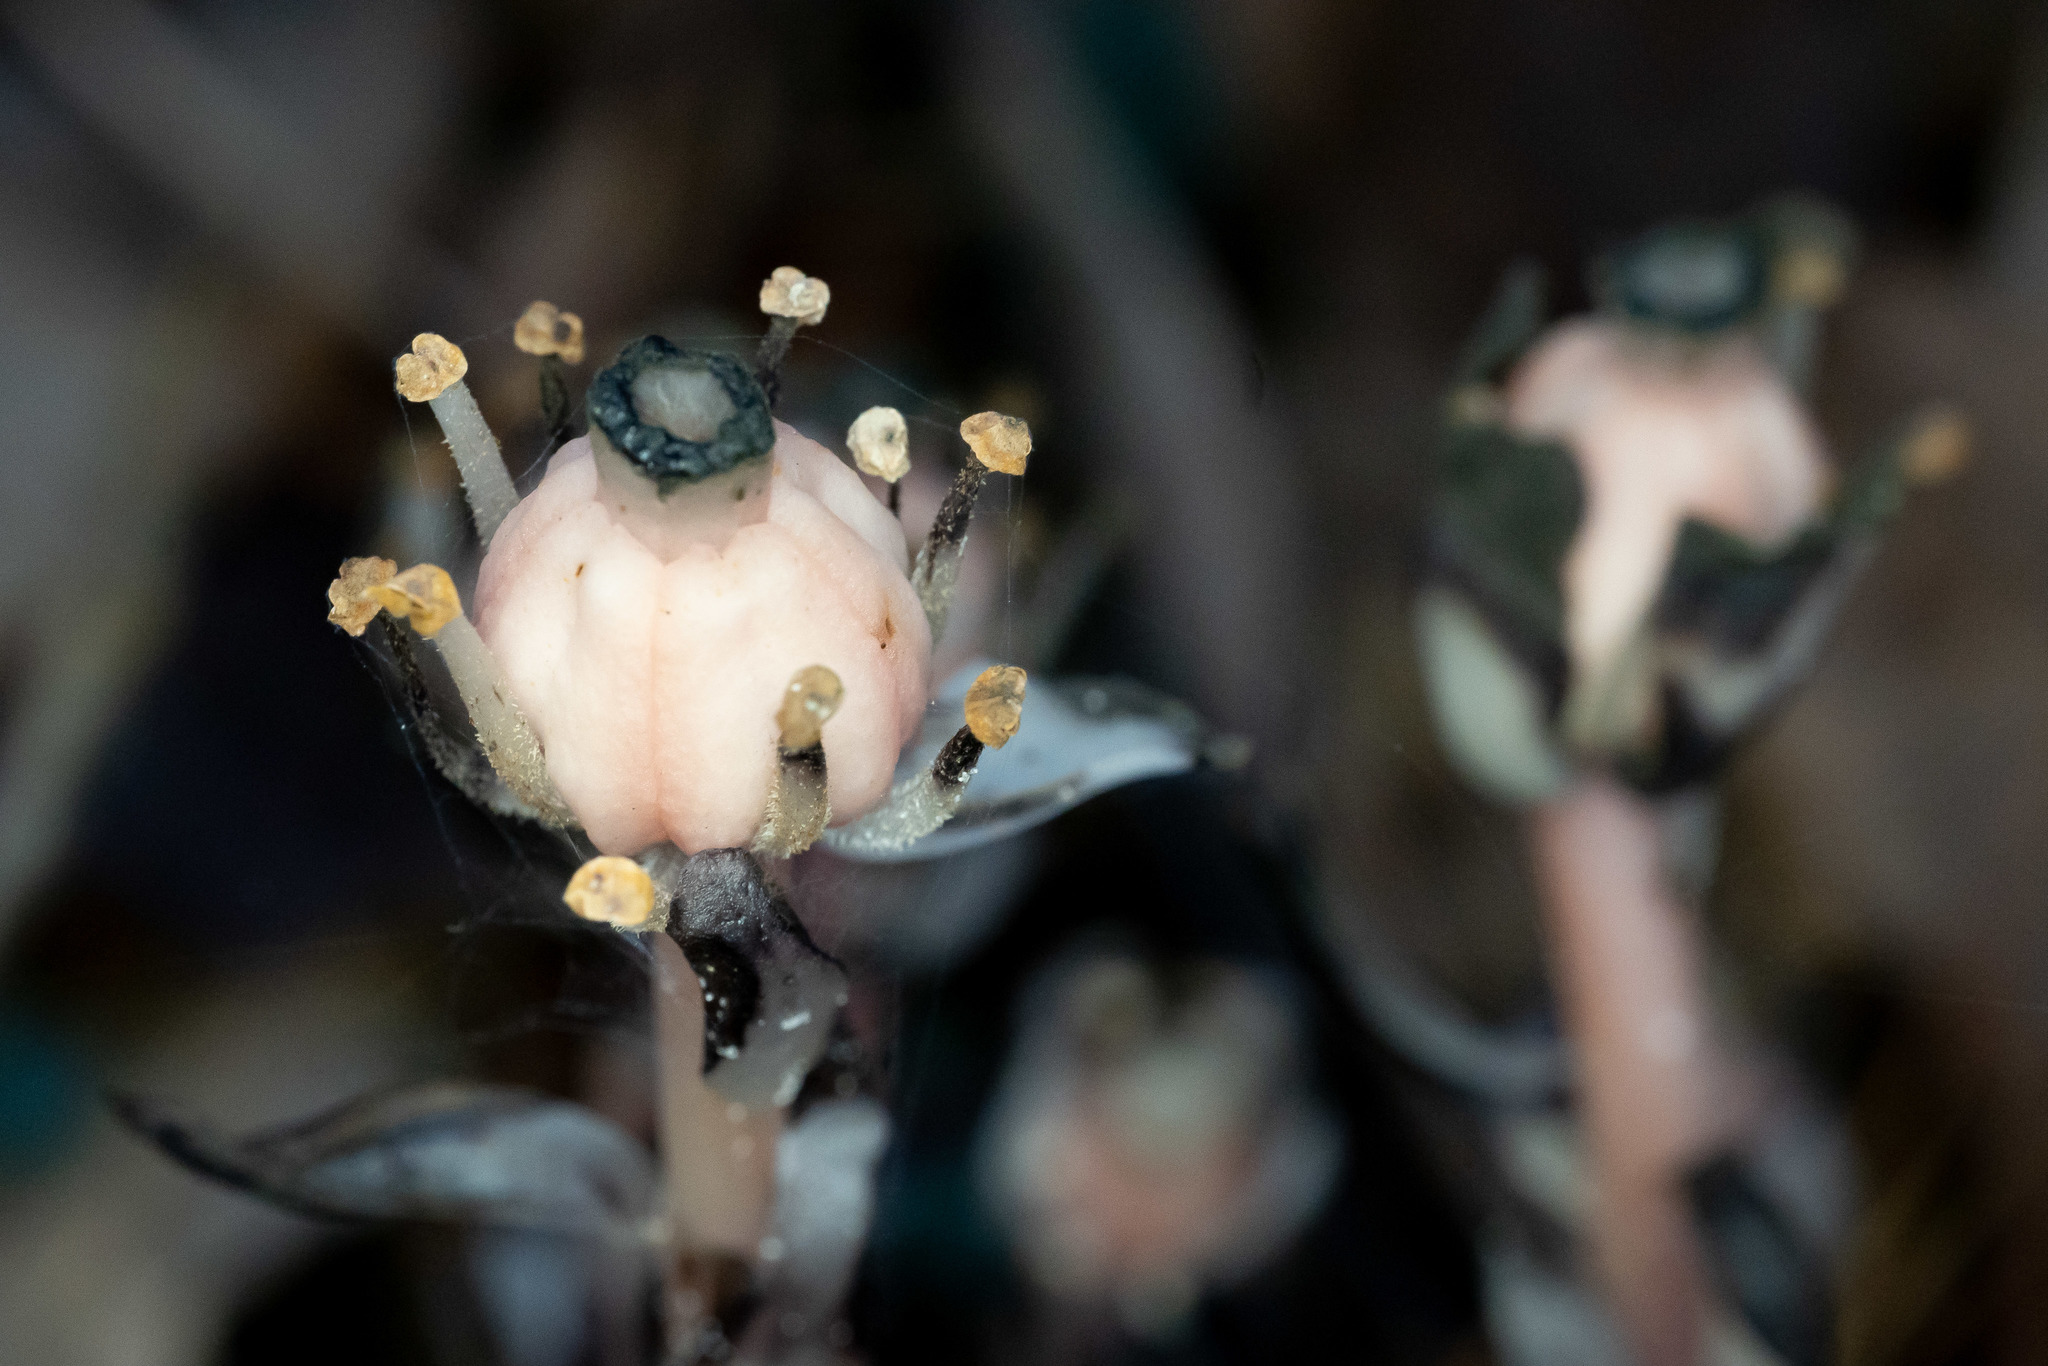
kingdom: Plantae
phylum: Tracheophyta
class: Magnoliopsida
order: Ericales
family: Ericaceae
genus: Monotropa
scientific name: Monotropa uniflora
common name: Convulsion root
